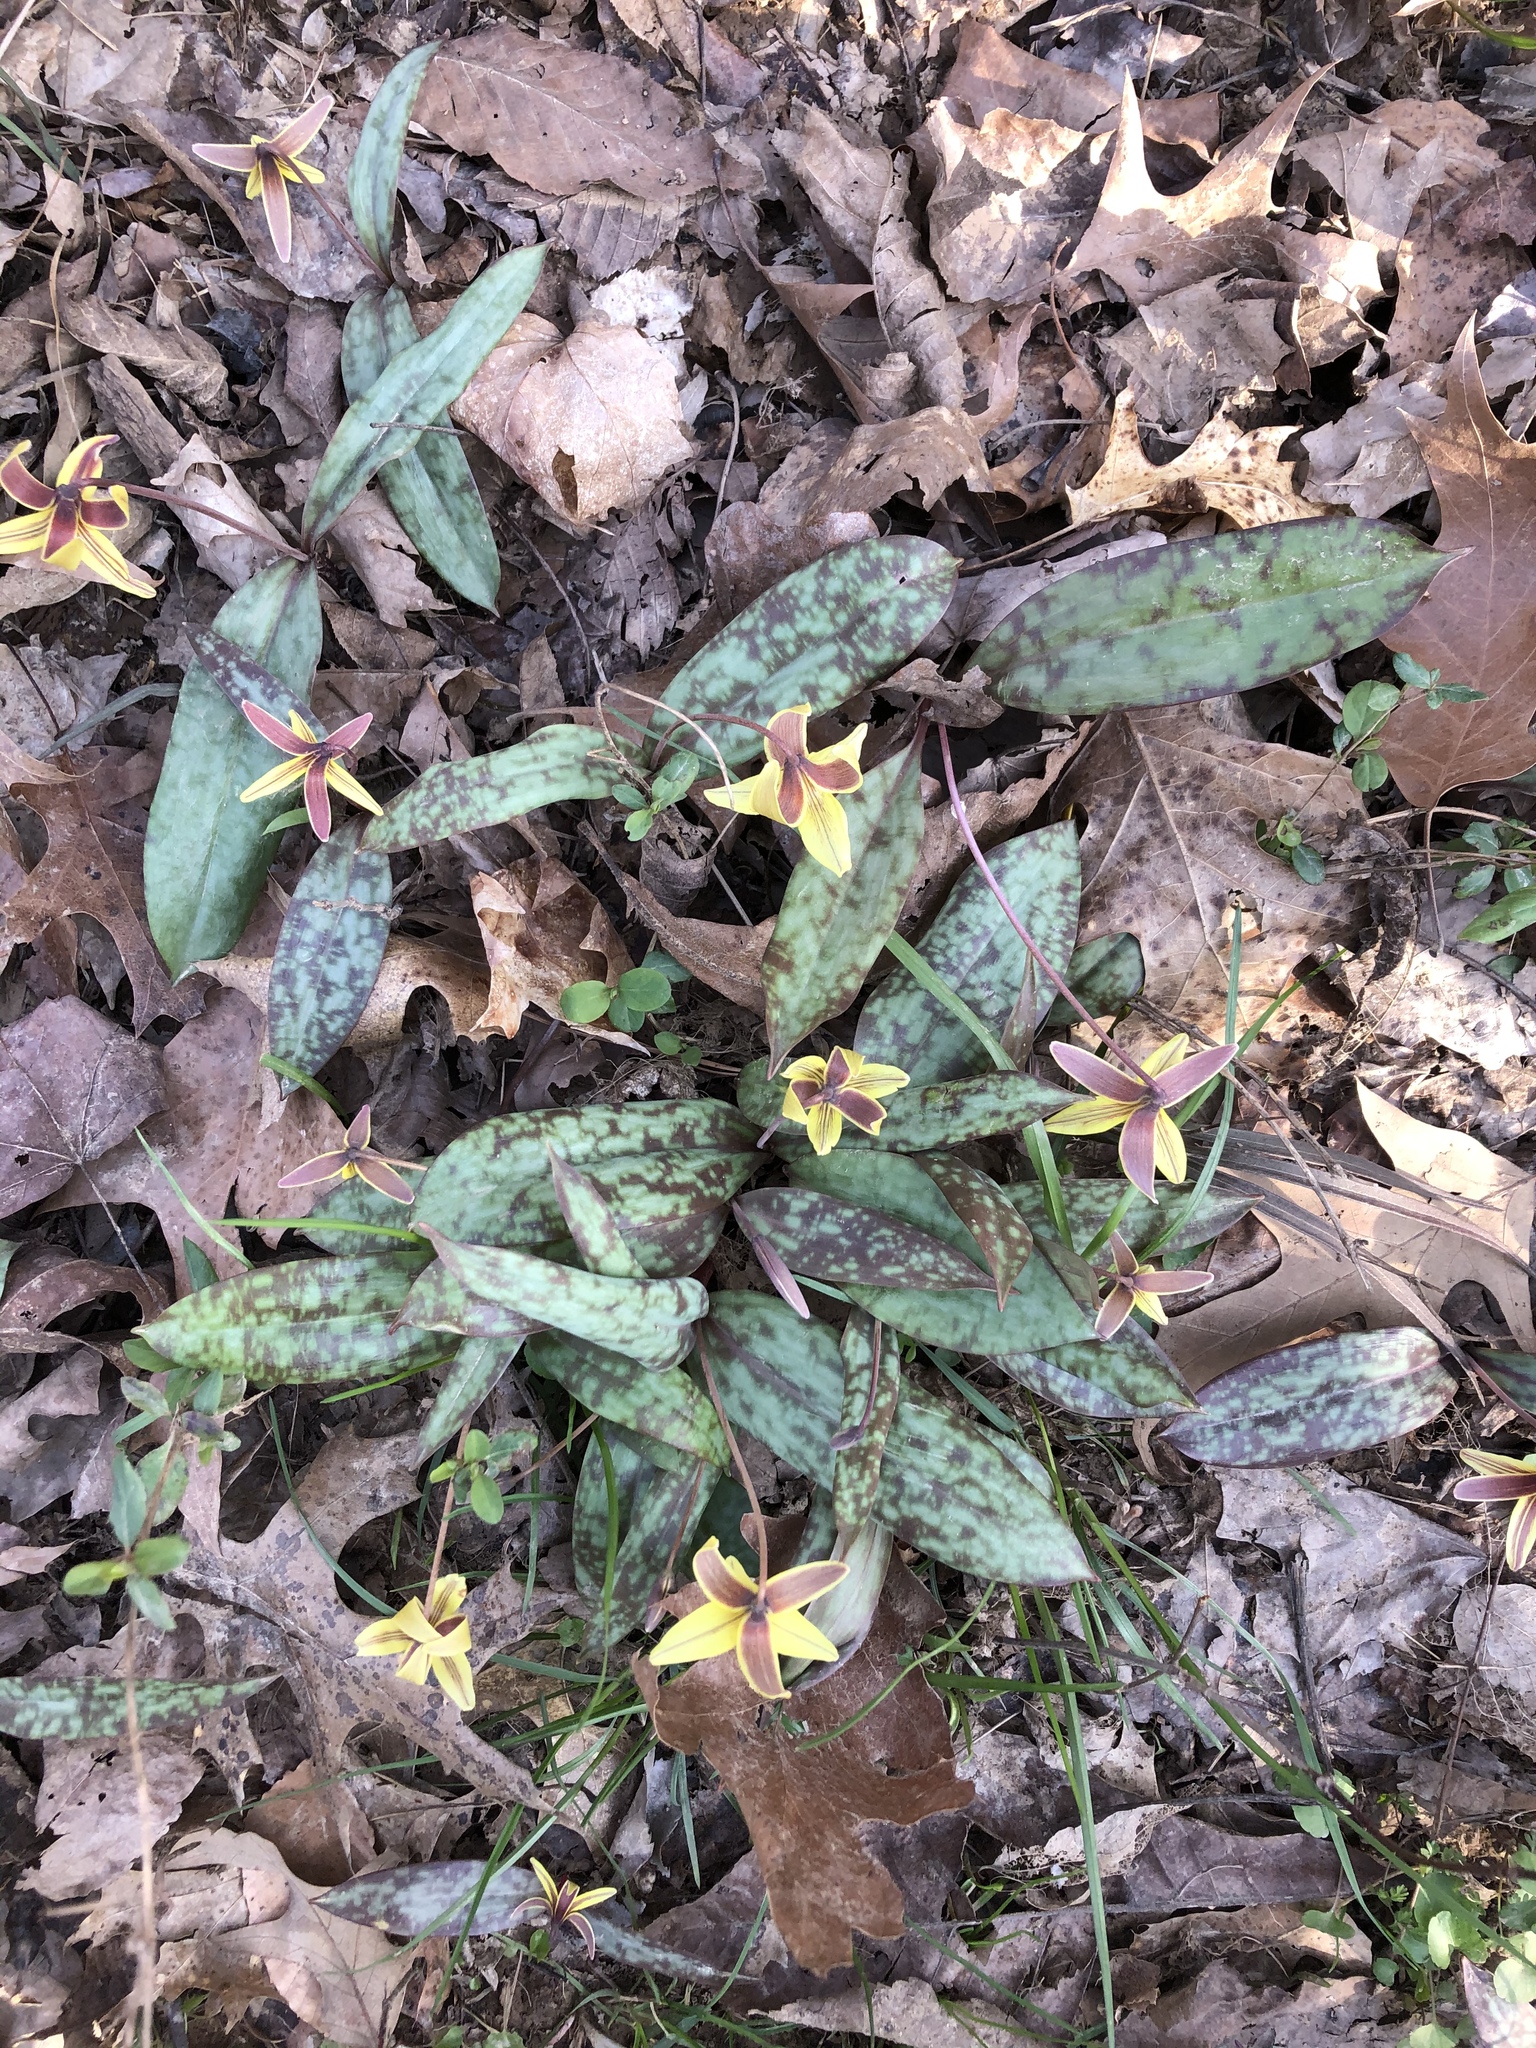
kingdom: Plantae
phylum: Tracheophyta
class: Liliopsida
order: Liliales
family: Liliaceae
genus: Erythronium
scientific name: Erythronium umbilicatum
